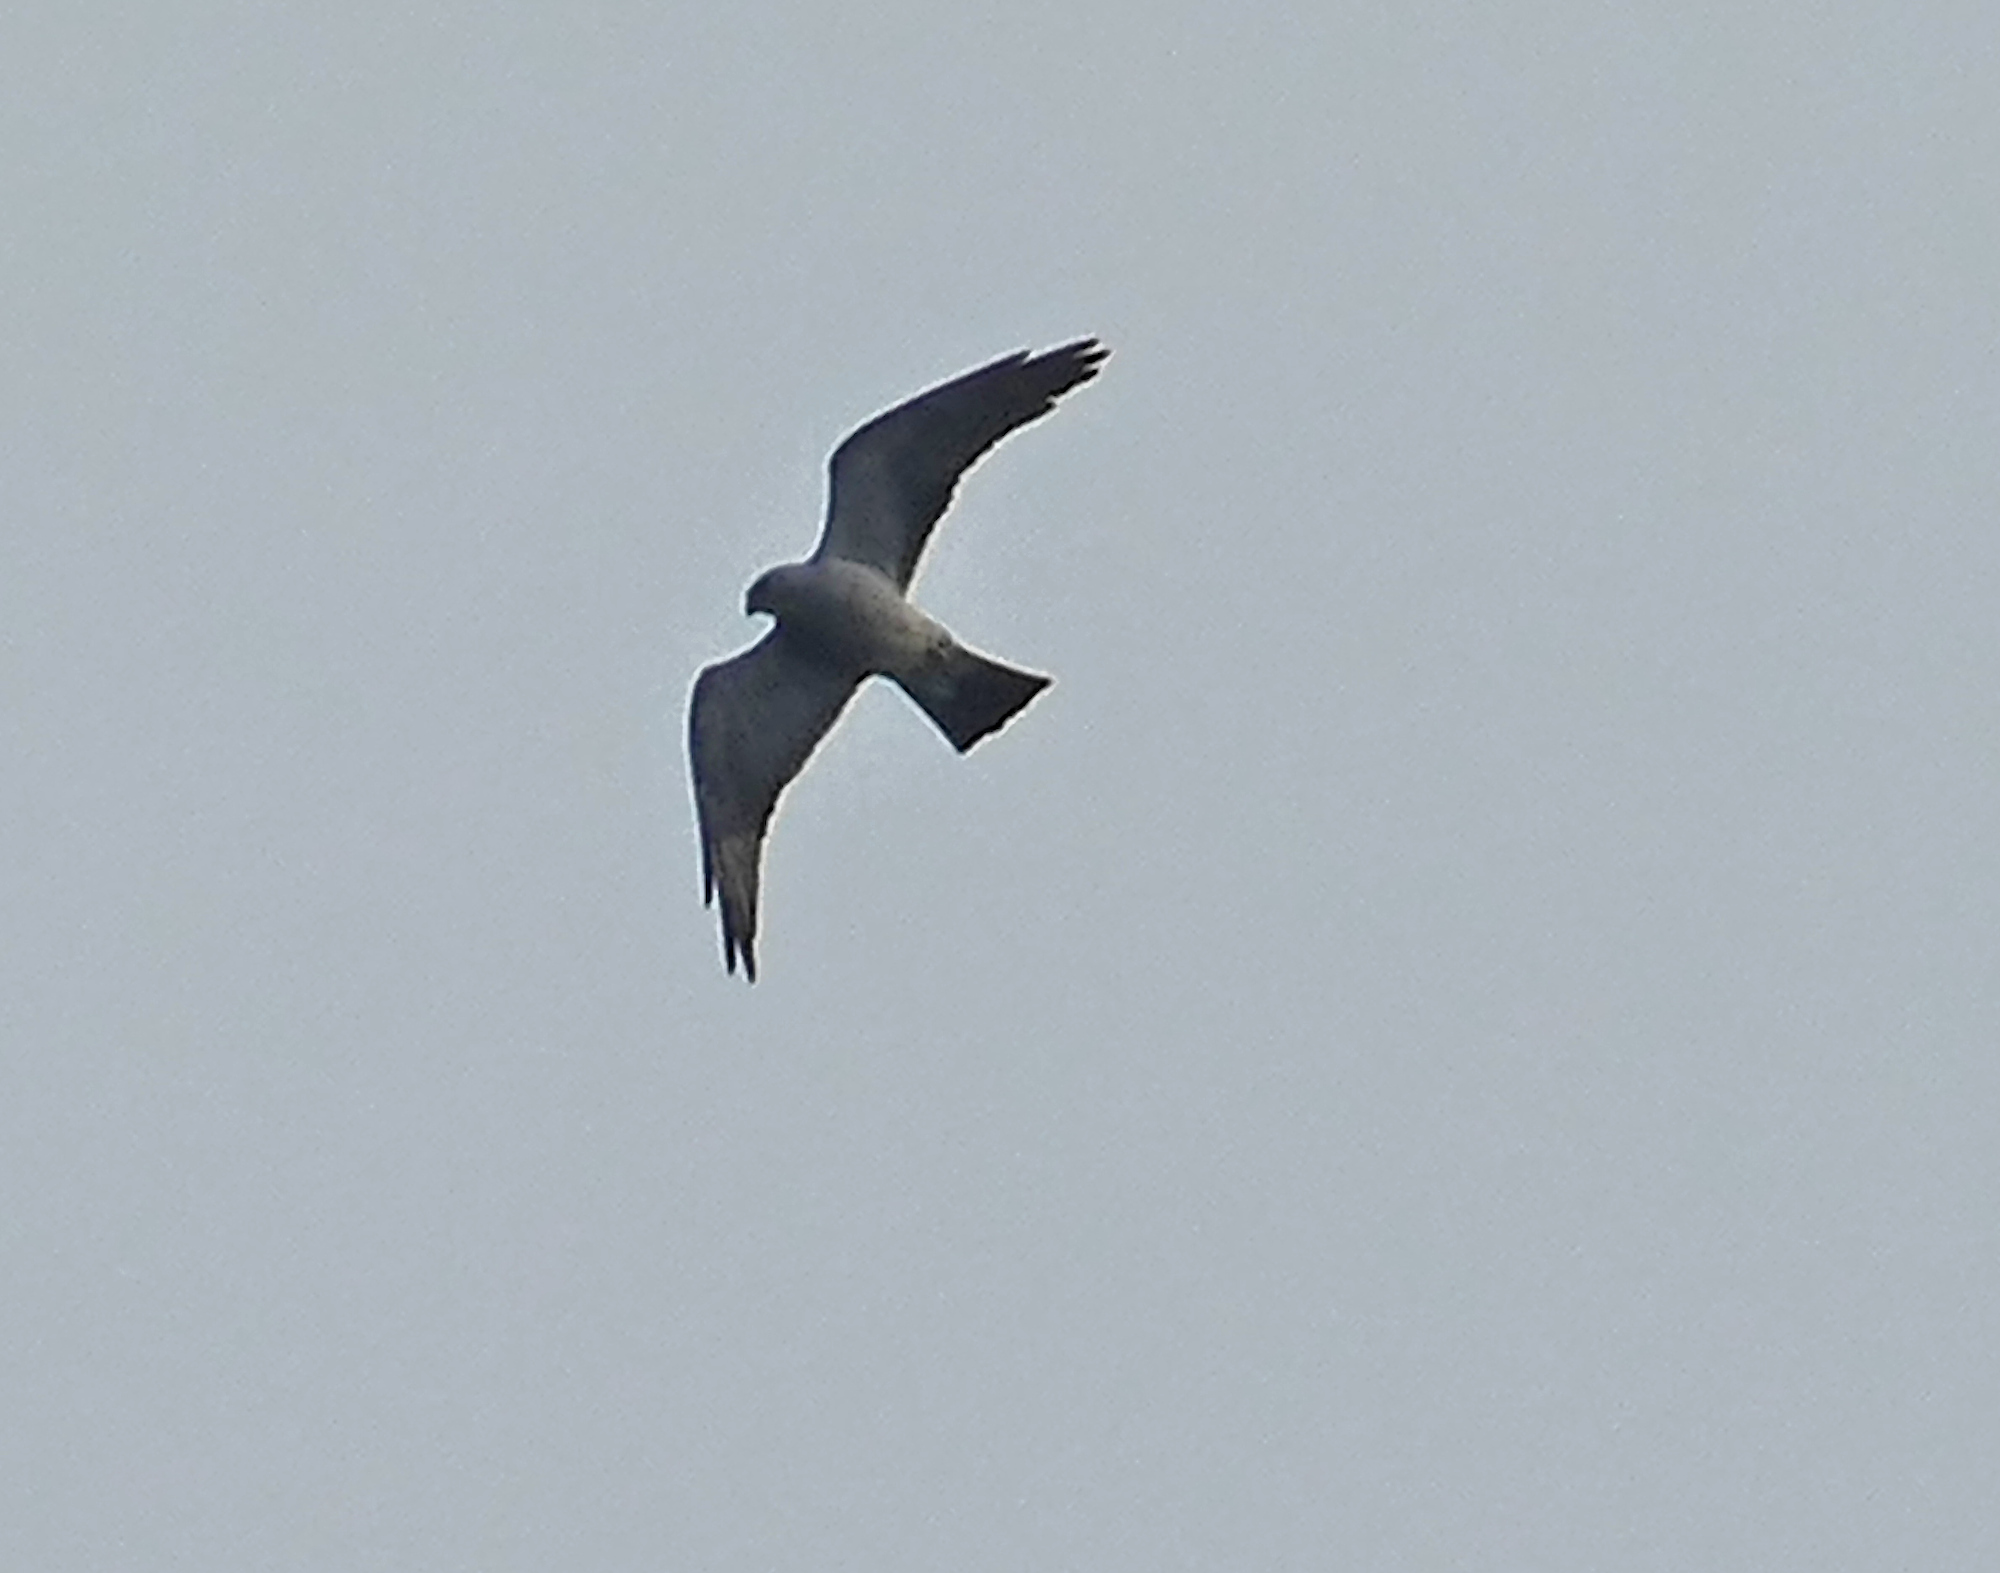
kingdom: Animalia
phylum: Chordata
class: Aves
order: Accipitriformes
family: Accipitridae
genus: Ictinia
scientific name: Ictinia mississippiensis
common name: Mississippi kite
